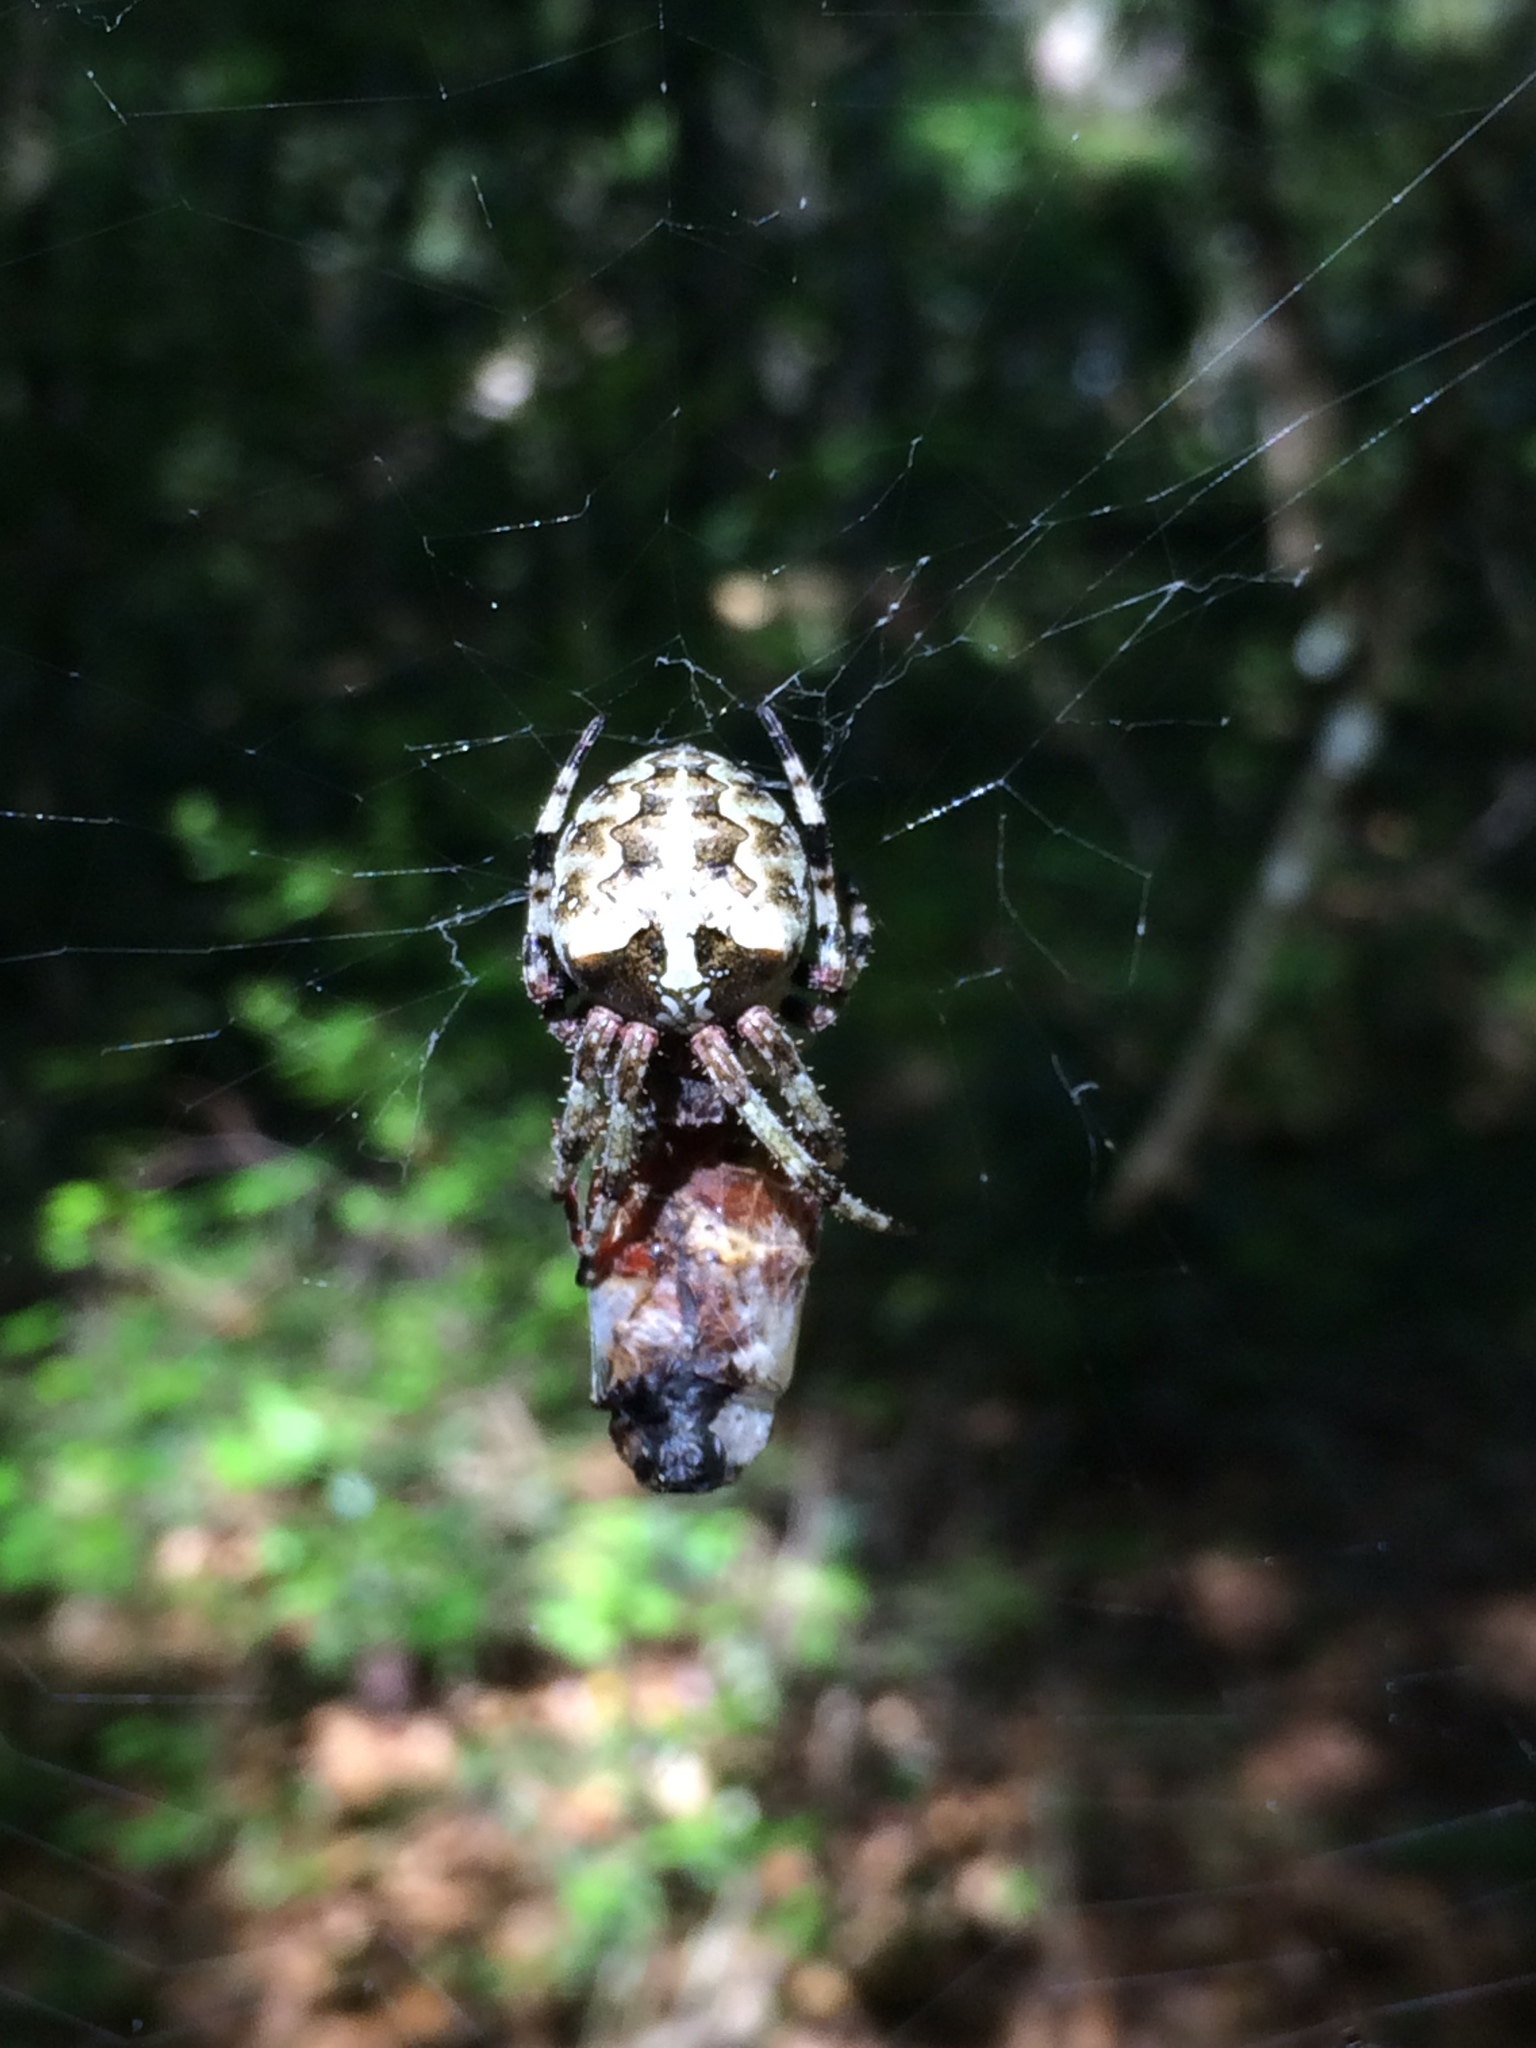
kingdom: Animalia
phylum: Arthropoda
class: Arachnida
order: Araneae
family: Araneidae
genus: Araneus
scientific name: Araneus bicentenarius
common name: Giant lichen orbweaver
